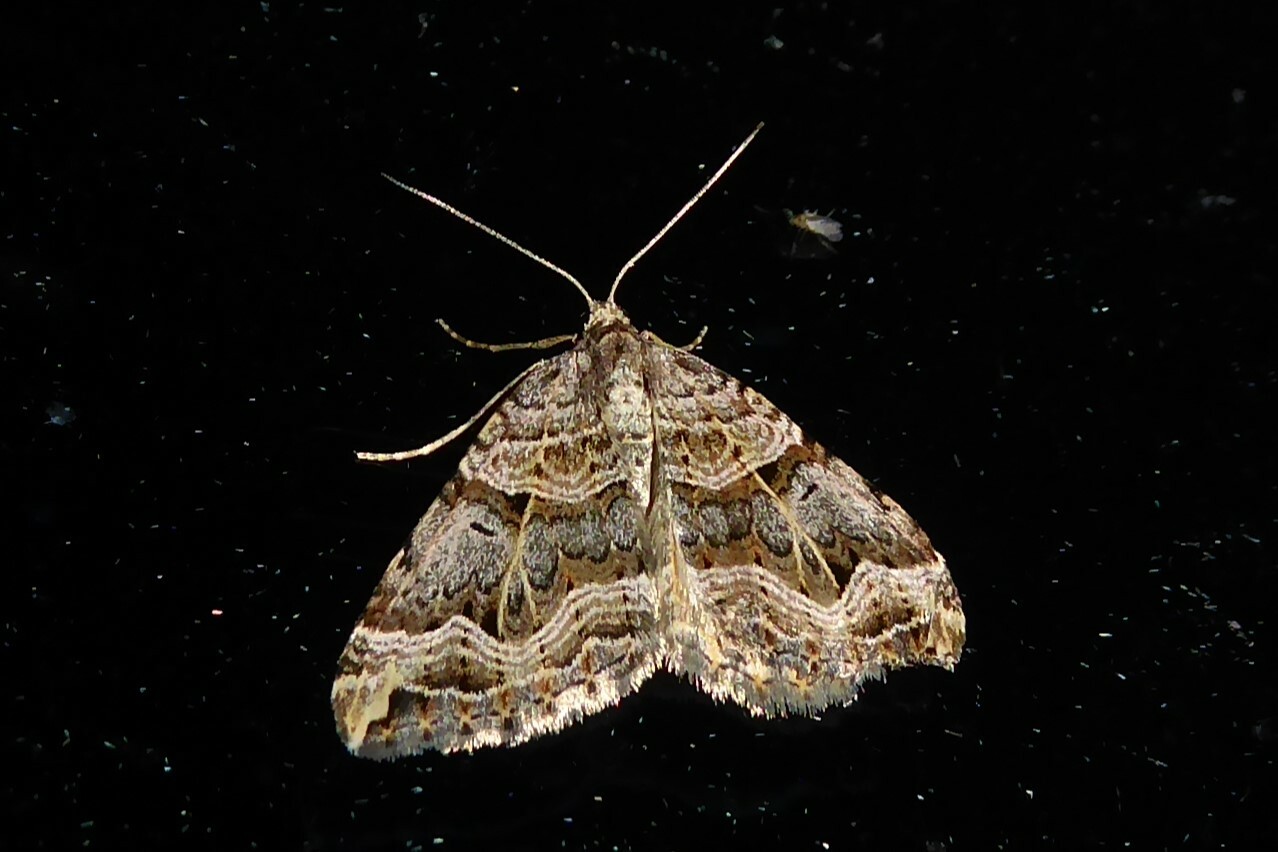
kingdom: Animalia
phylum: Arthropoda
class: Insecta
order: Lepidoptera
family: Geometridae
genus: Xanthorhoe
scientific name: Xanthorhoe semifissata
